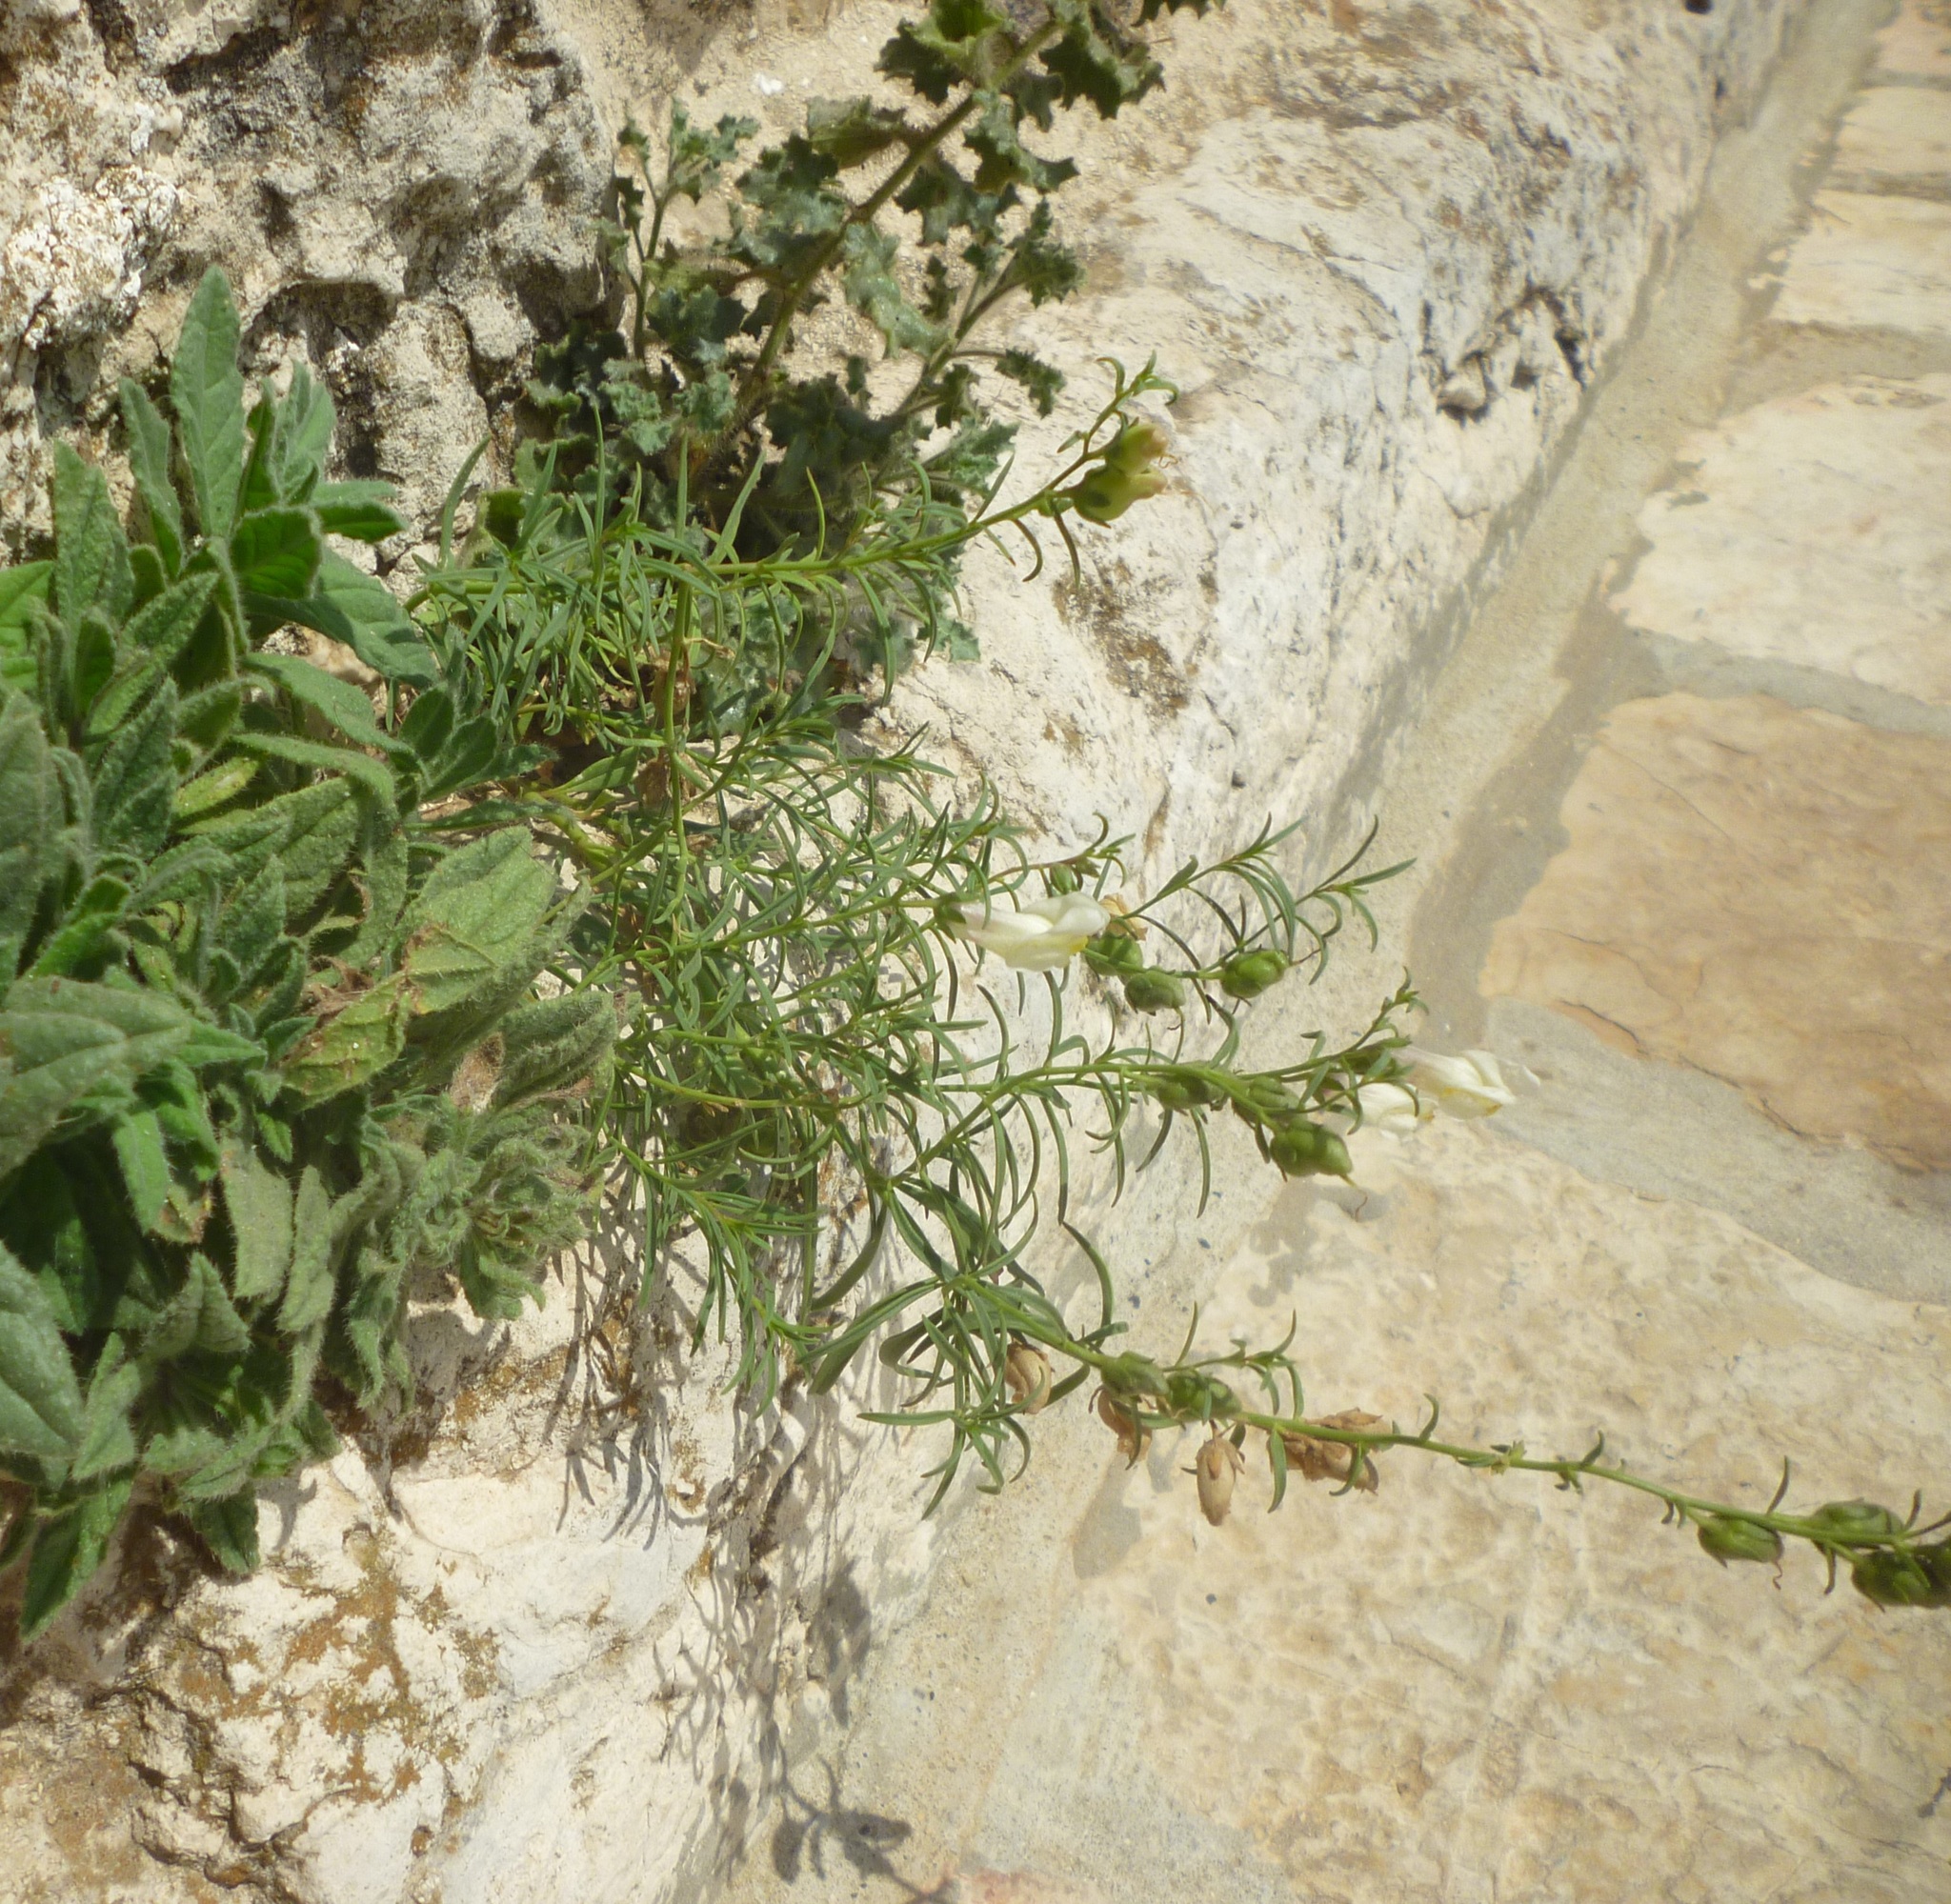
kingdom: Plantae
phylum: Tracheophyta
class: Magnoliopsida
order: Lamiales
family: Plantaginaceae
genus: Antirrhinum
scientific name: Antirrhinum siculum
